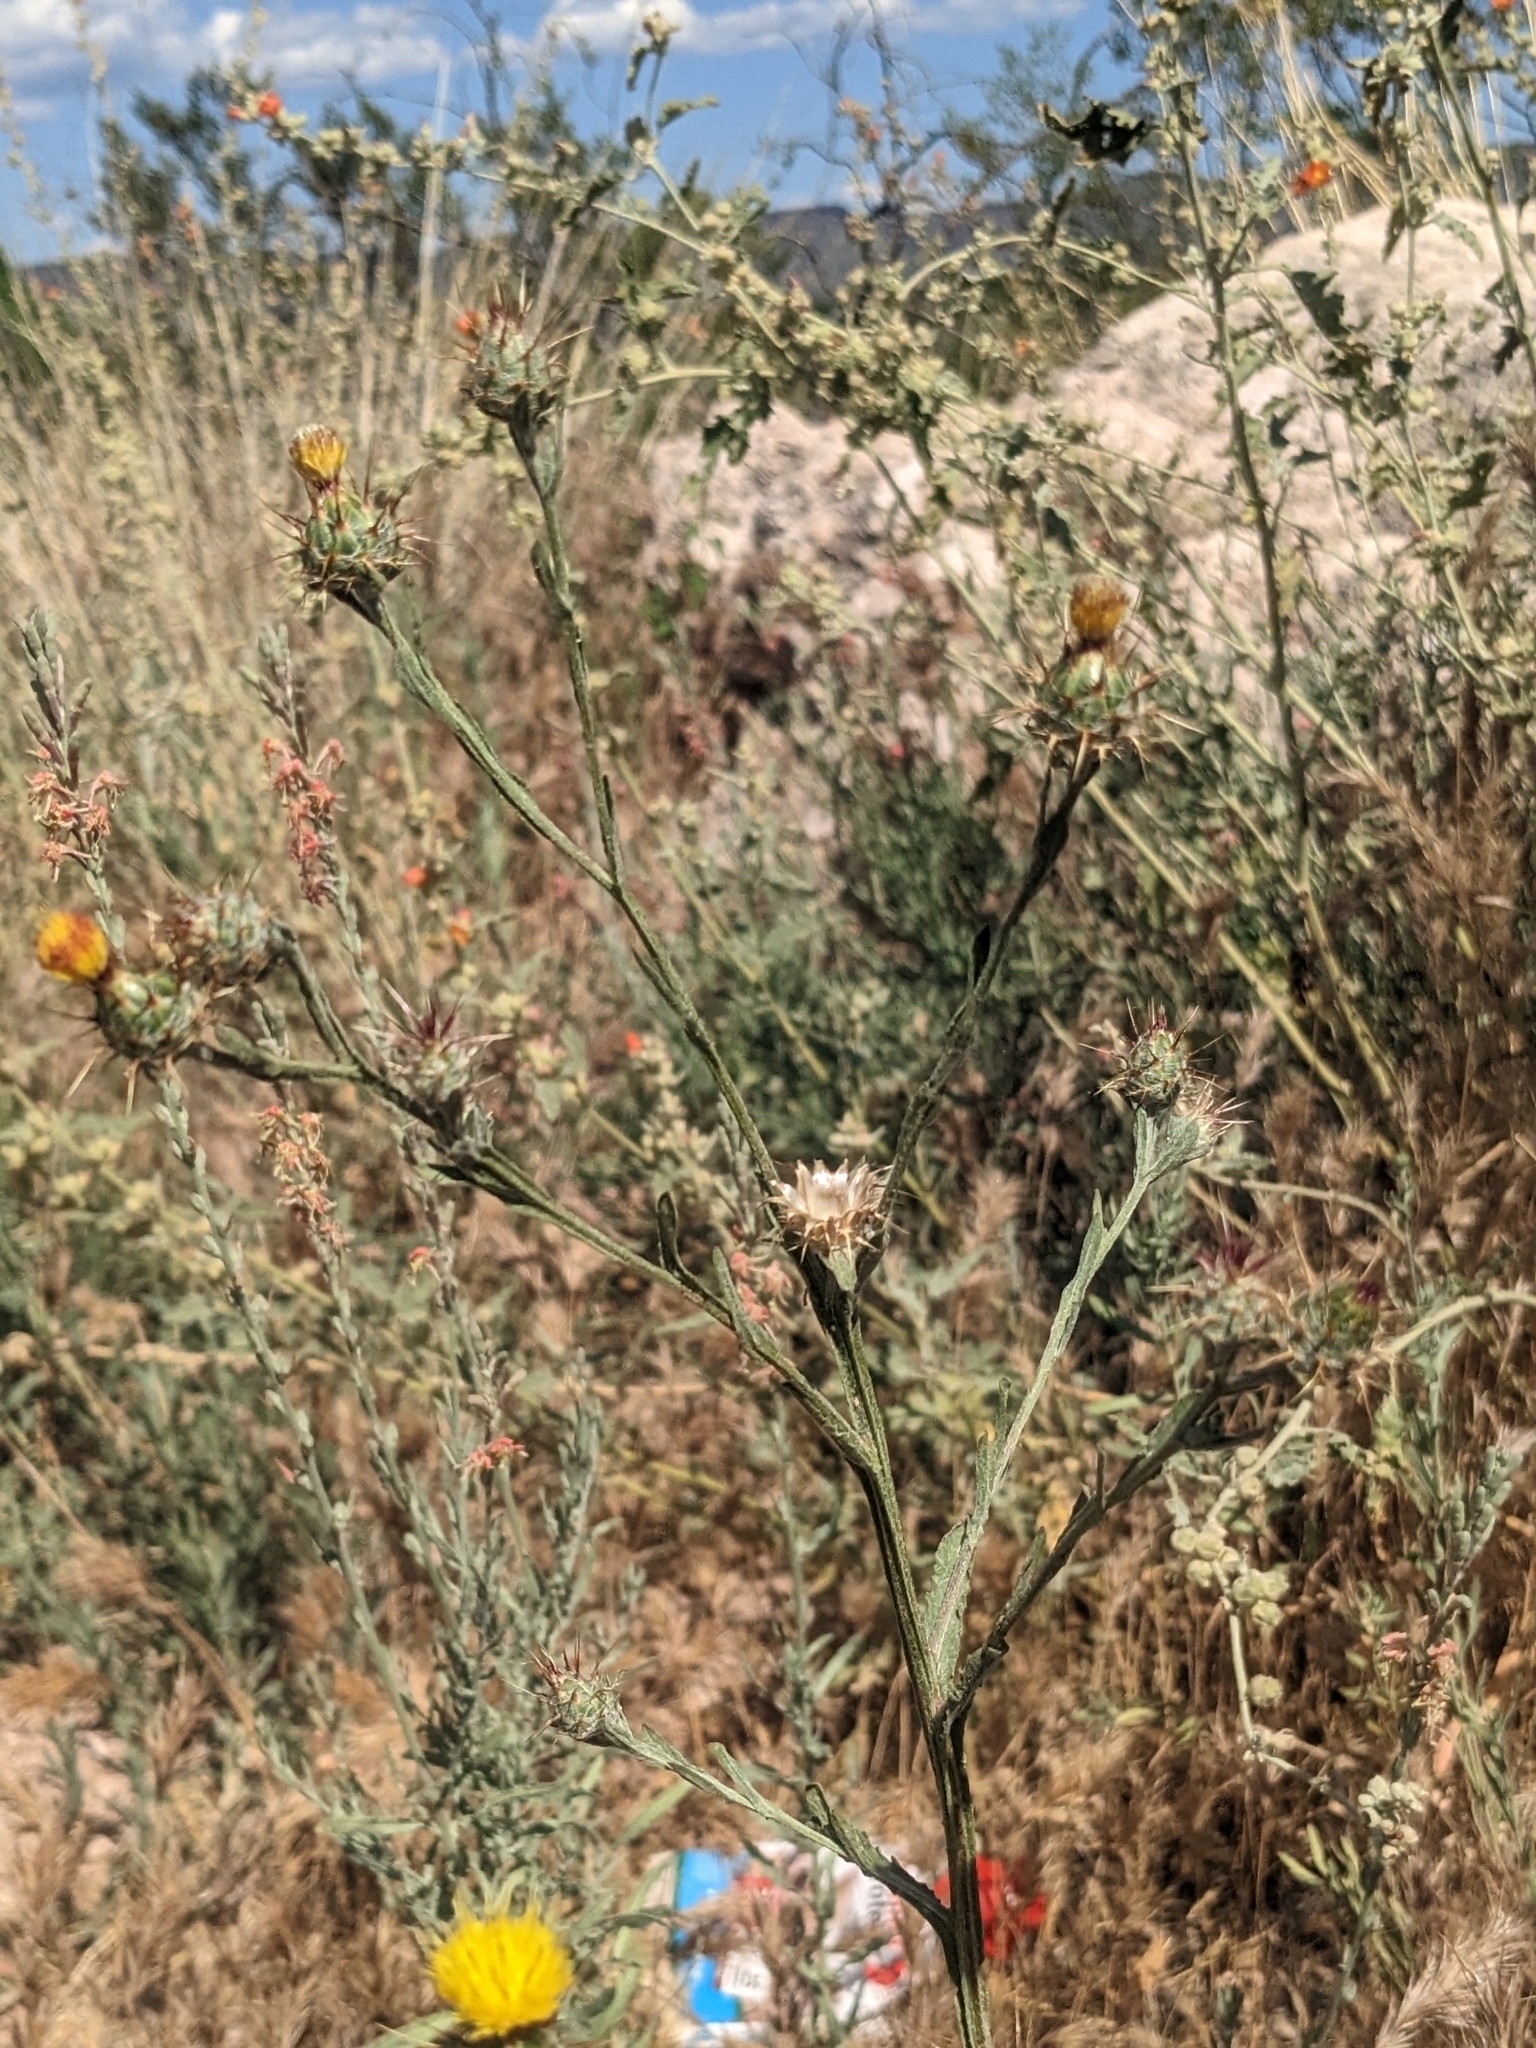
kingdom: Plantae
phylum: Tracheophyta
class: Magnoliopsida
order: Asterales
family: Asteraceae
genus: Centaurea
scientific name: Centaurea melitensis
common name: Maltese star-thistle
